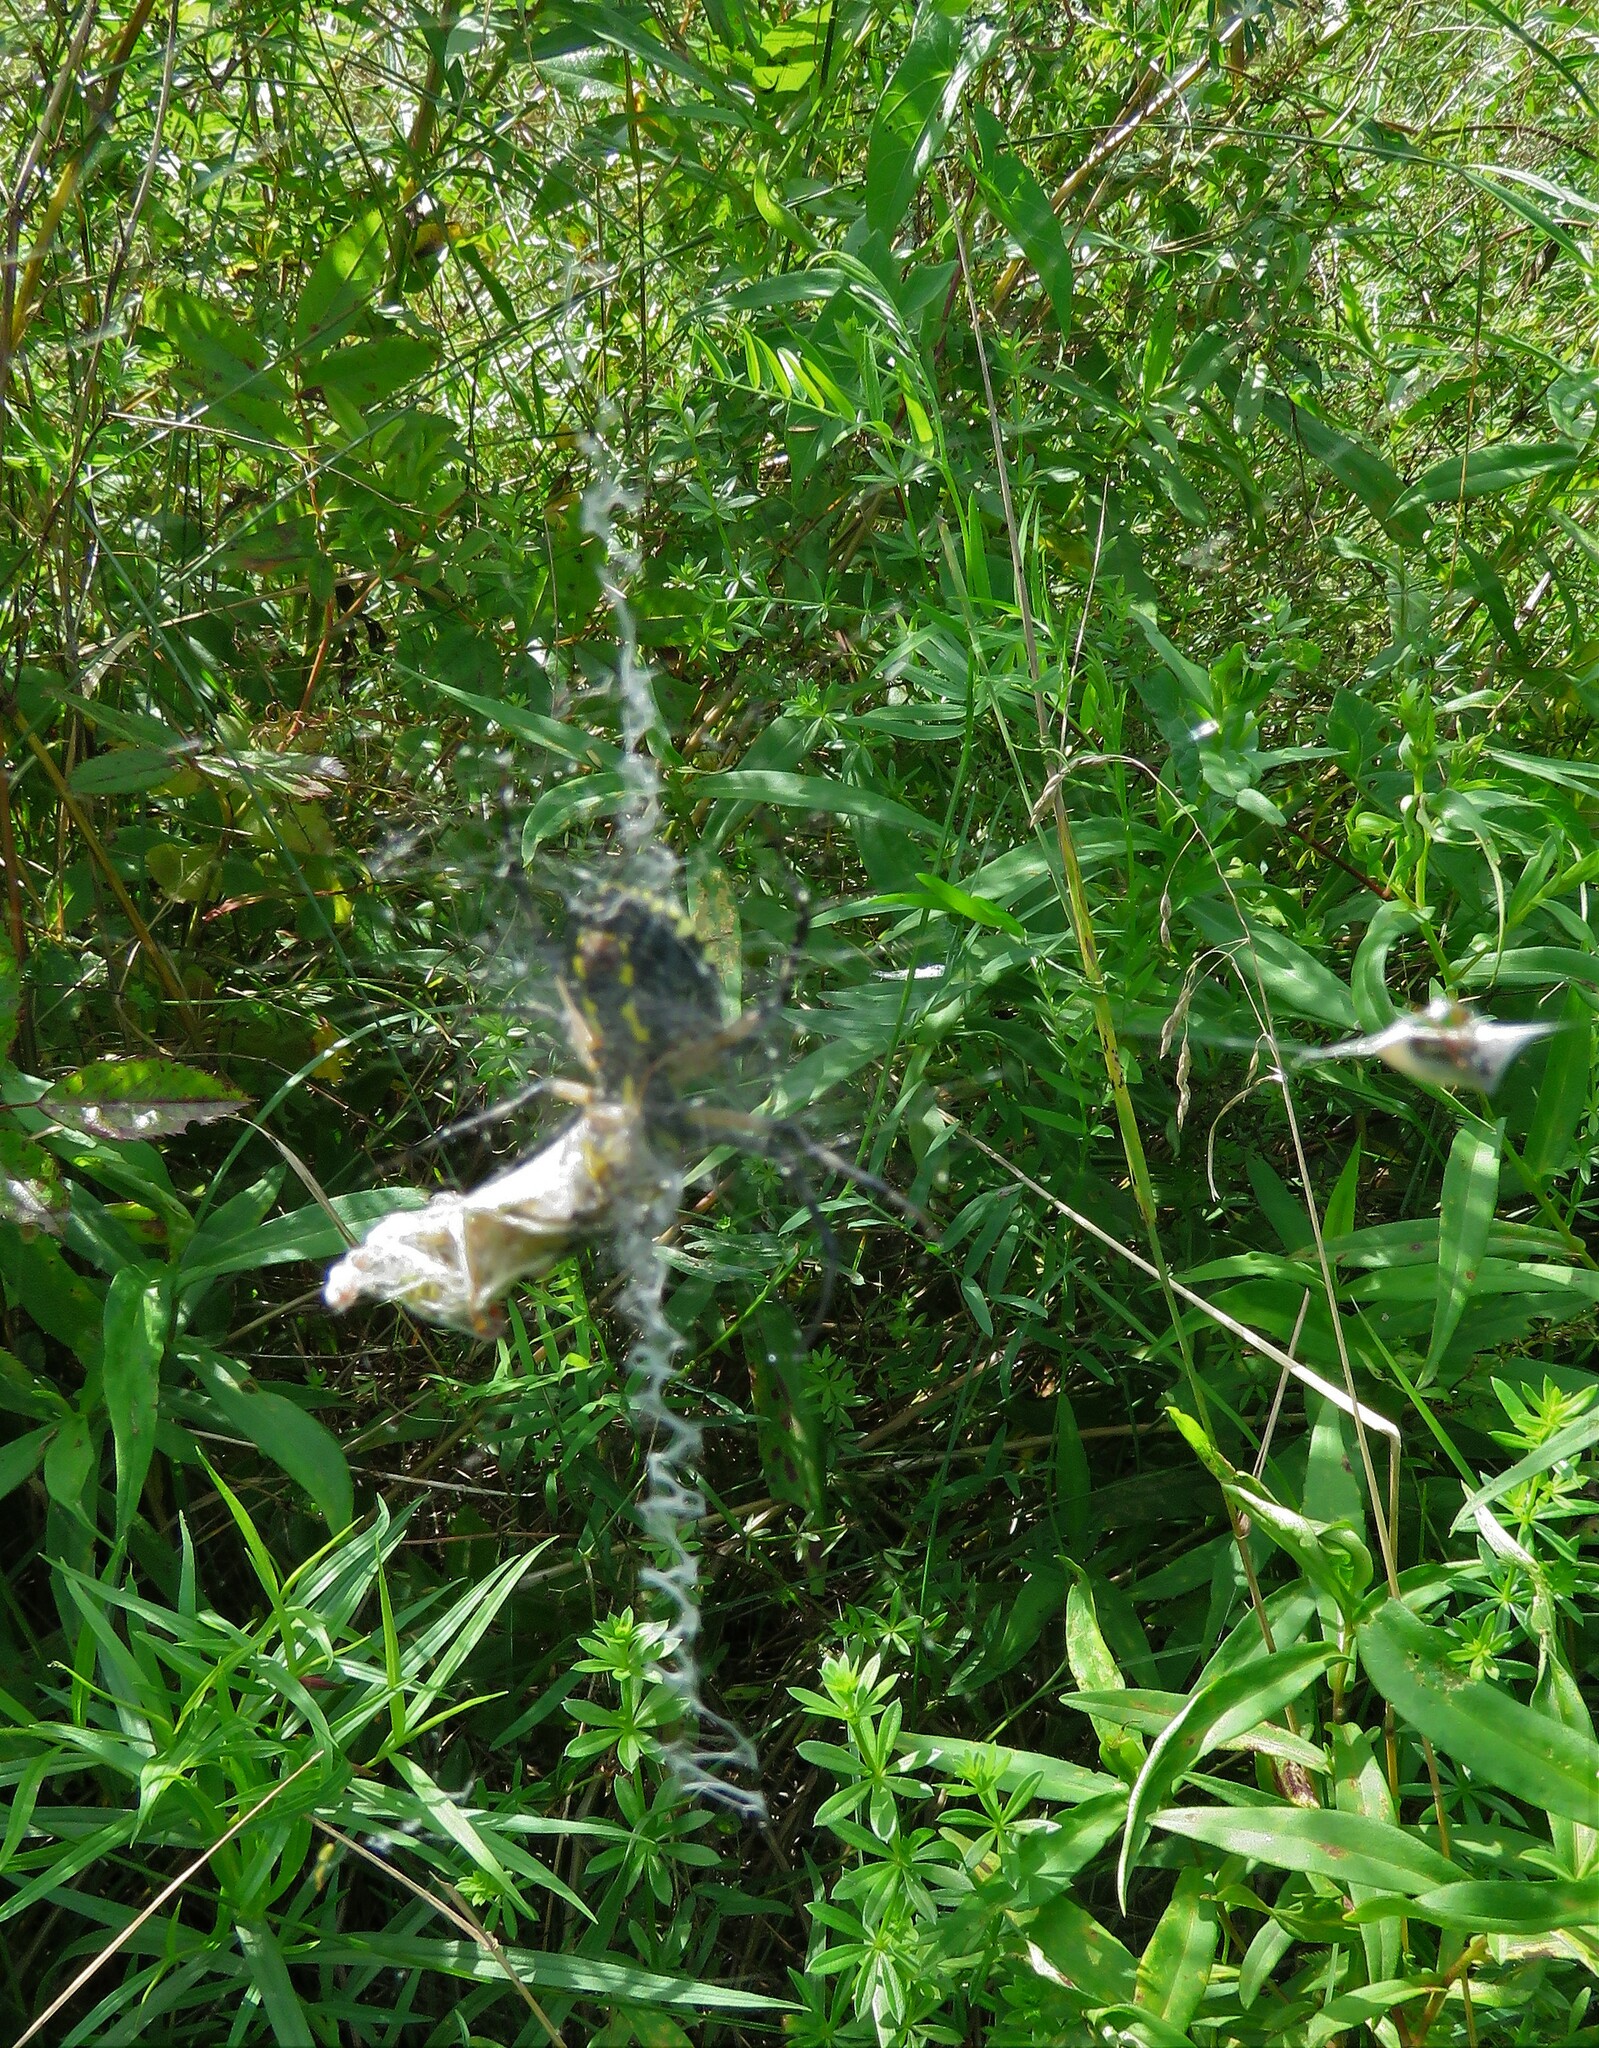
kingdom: Animalia
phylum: Arthropoda
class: Arachnida
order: Araneae
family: Araneidae
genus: Argiope
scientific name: Argiope aurantia
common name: Orb weavers
